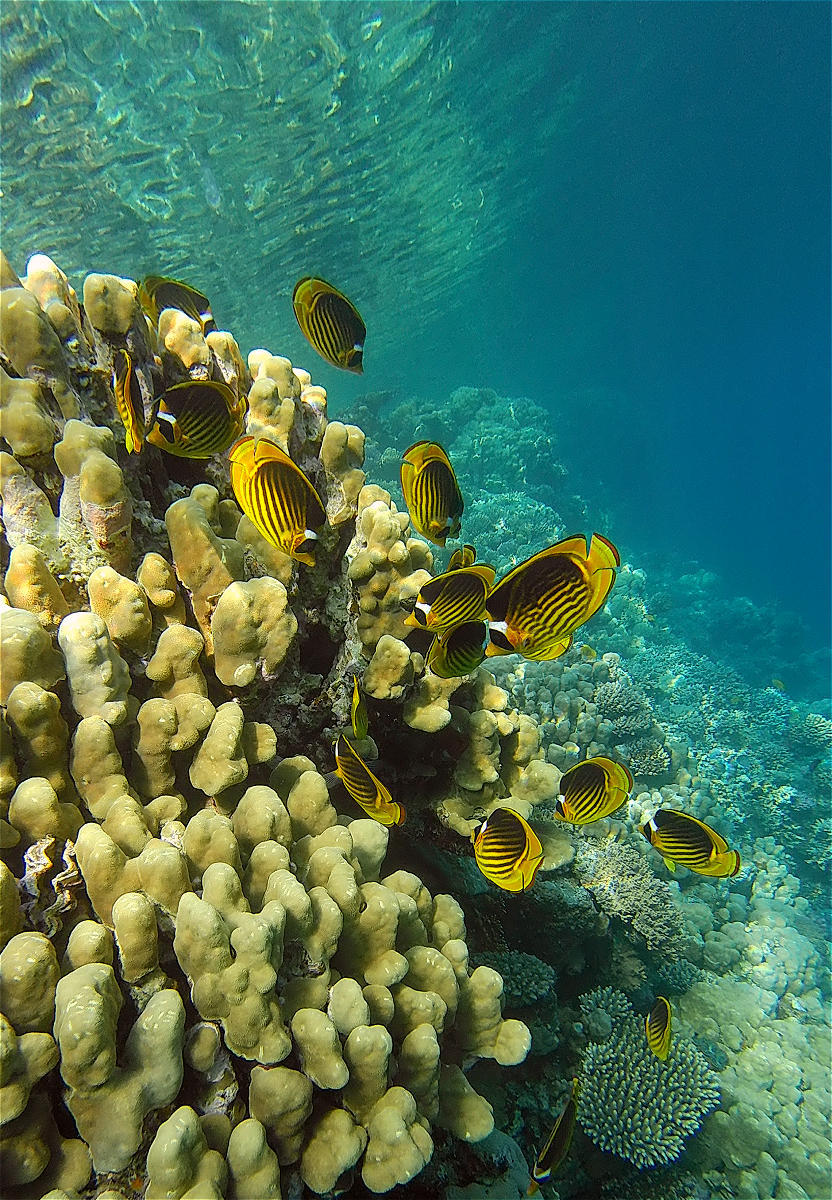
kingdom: Animalia
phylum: Chordata
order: Perciformes
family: Chaetodontidae
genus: Chaetodon
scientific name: Chaetodon fasciatus
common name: Diagonal butterflyfish
